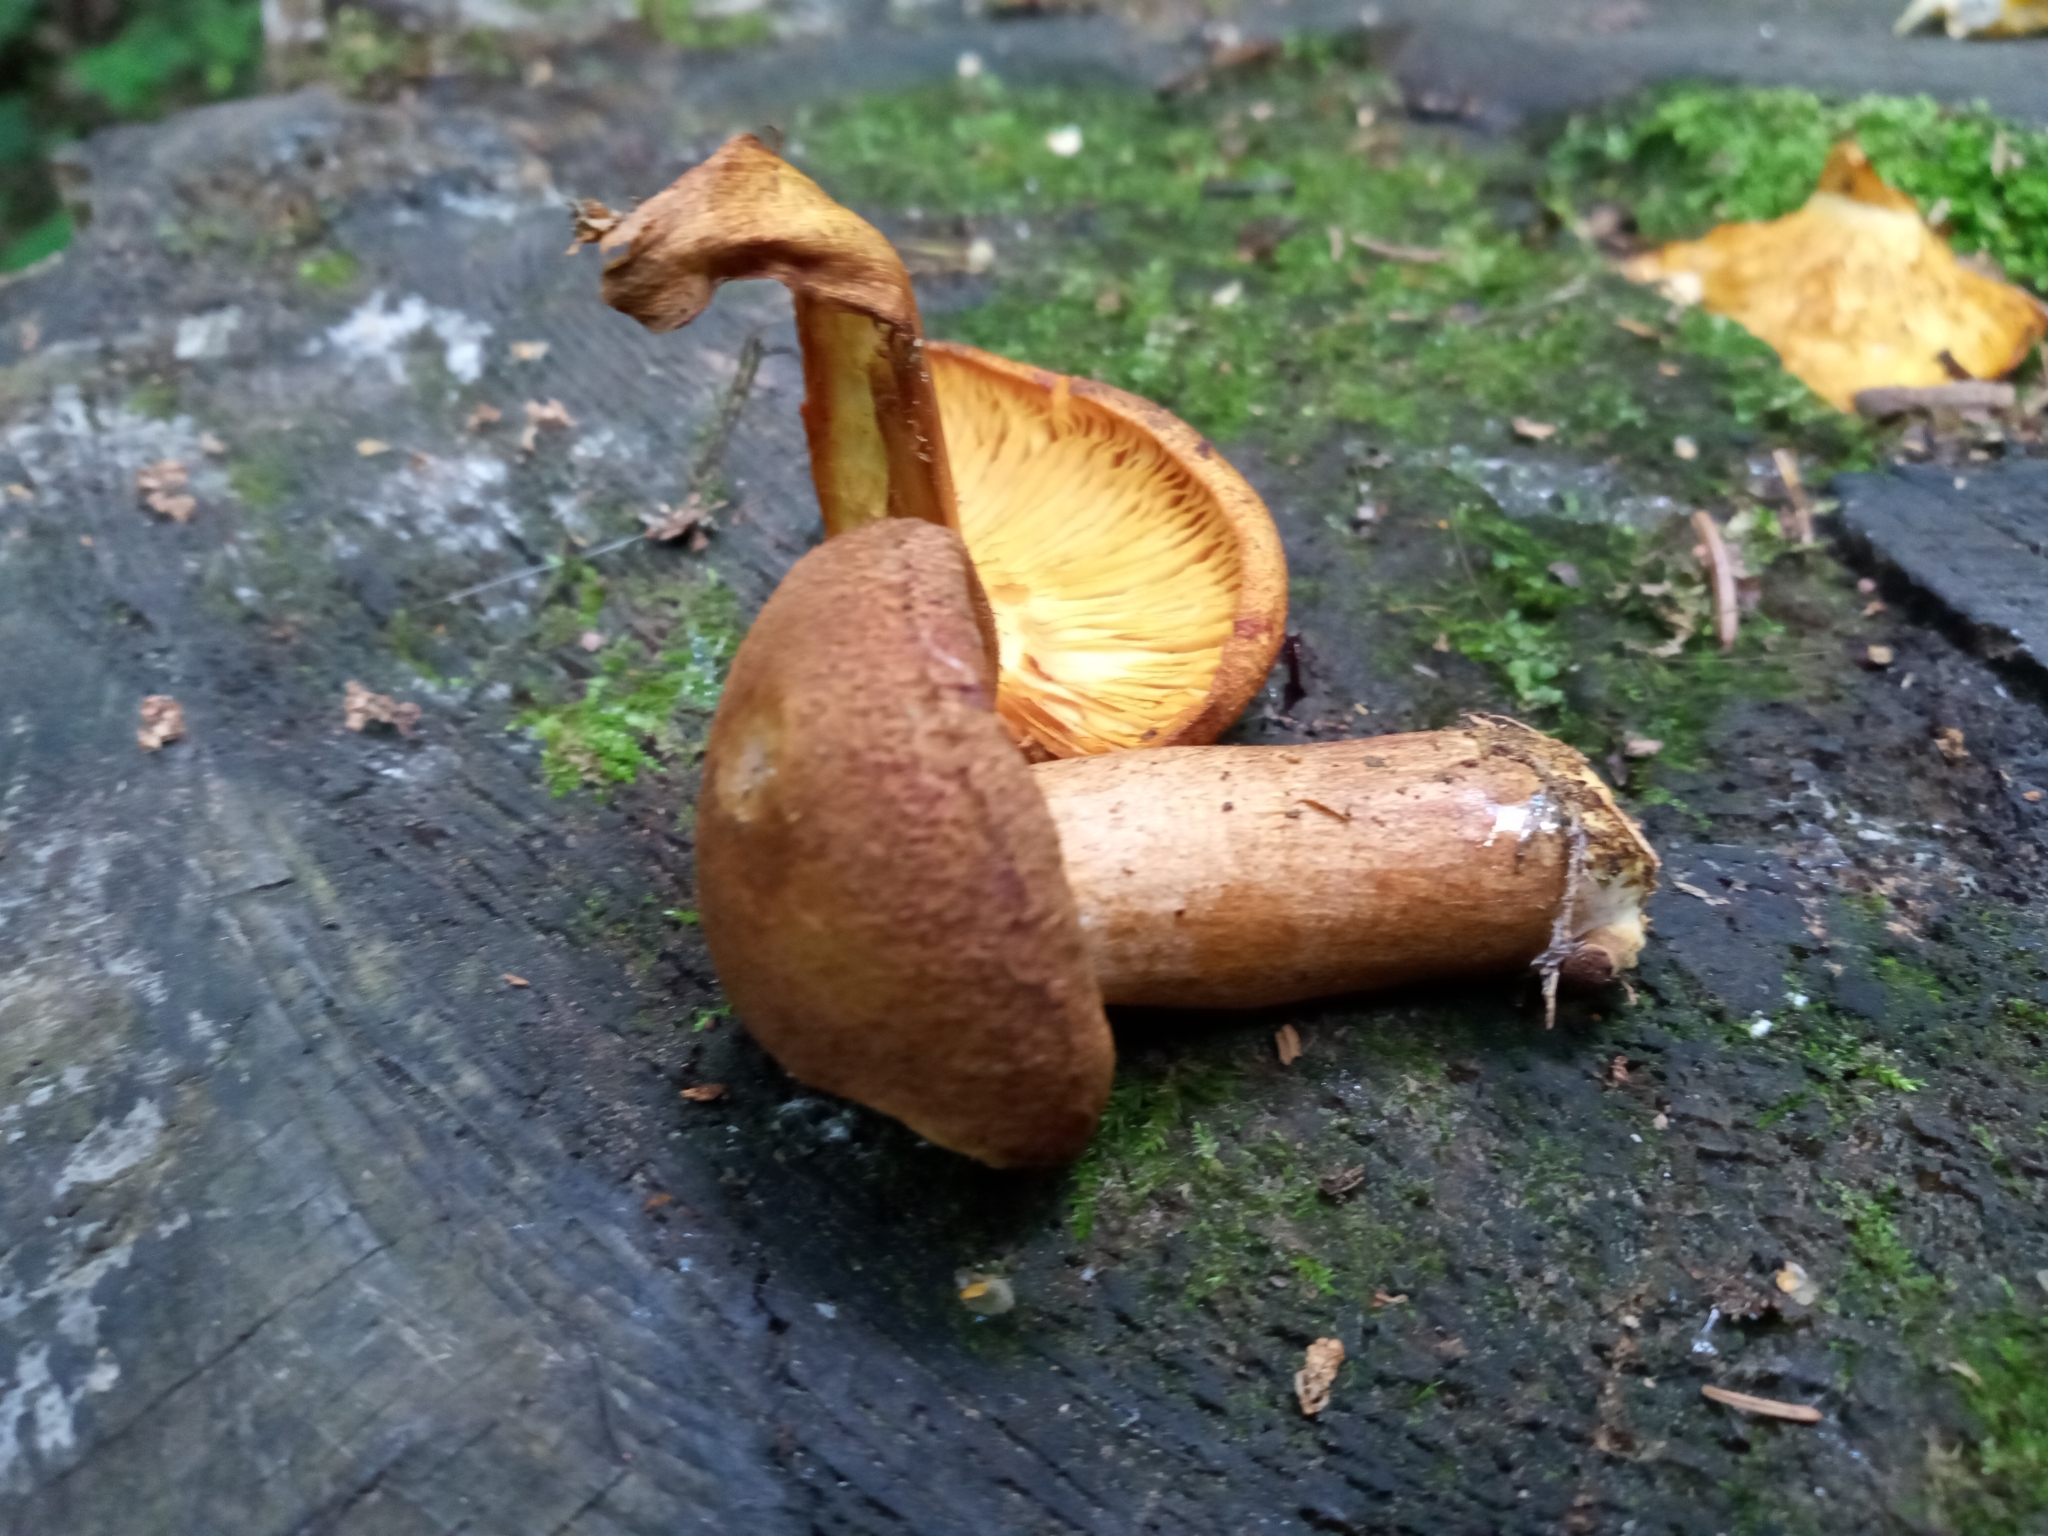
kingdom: Fungi
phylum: Basidiomycota
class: Agaricomycetes
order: Agaricales
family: Tricholomataceae
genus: Tricholomopsis
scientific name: Tricholomopsis rutilans
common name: Plums and custard
